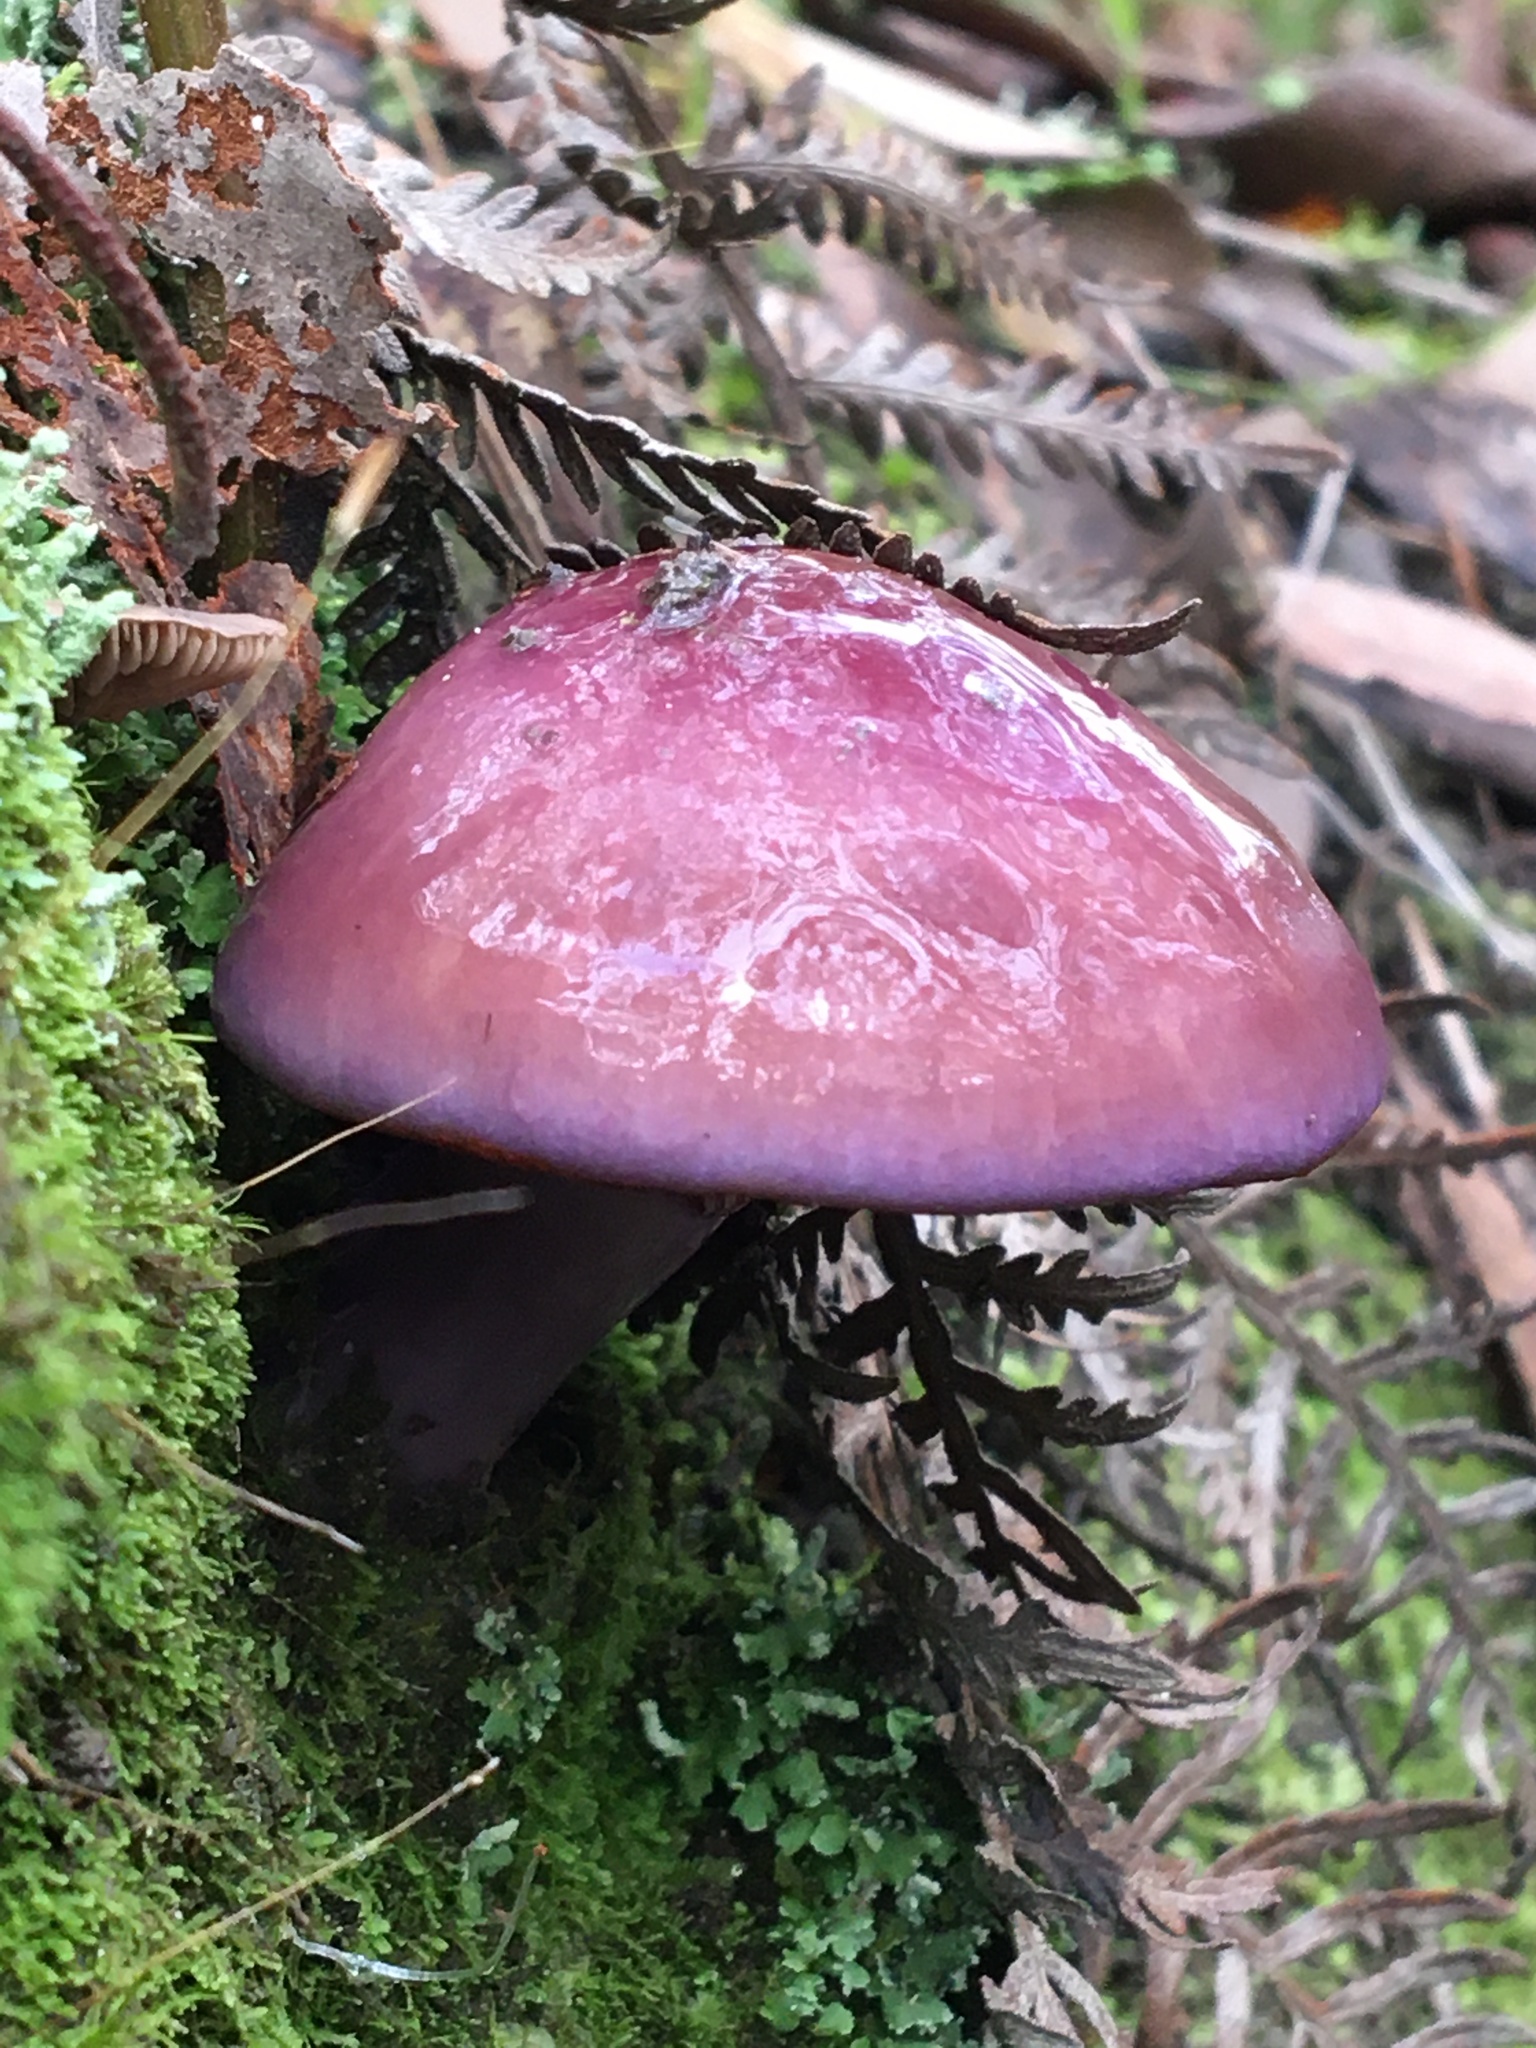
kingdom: Fungi
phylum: Basidiomycota
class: Agaricomycetes
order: Agaricales
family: Cortinariaceae
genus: Cortinarius
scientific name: Cortinarius archeri
